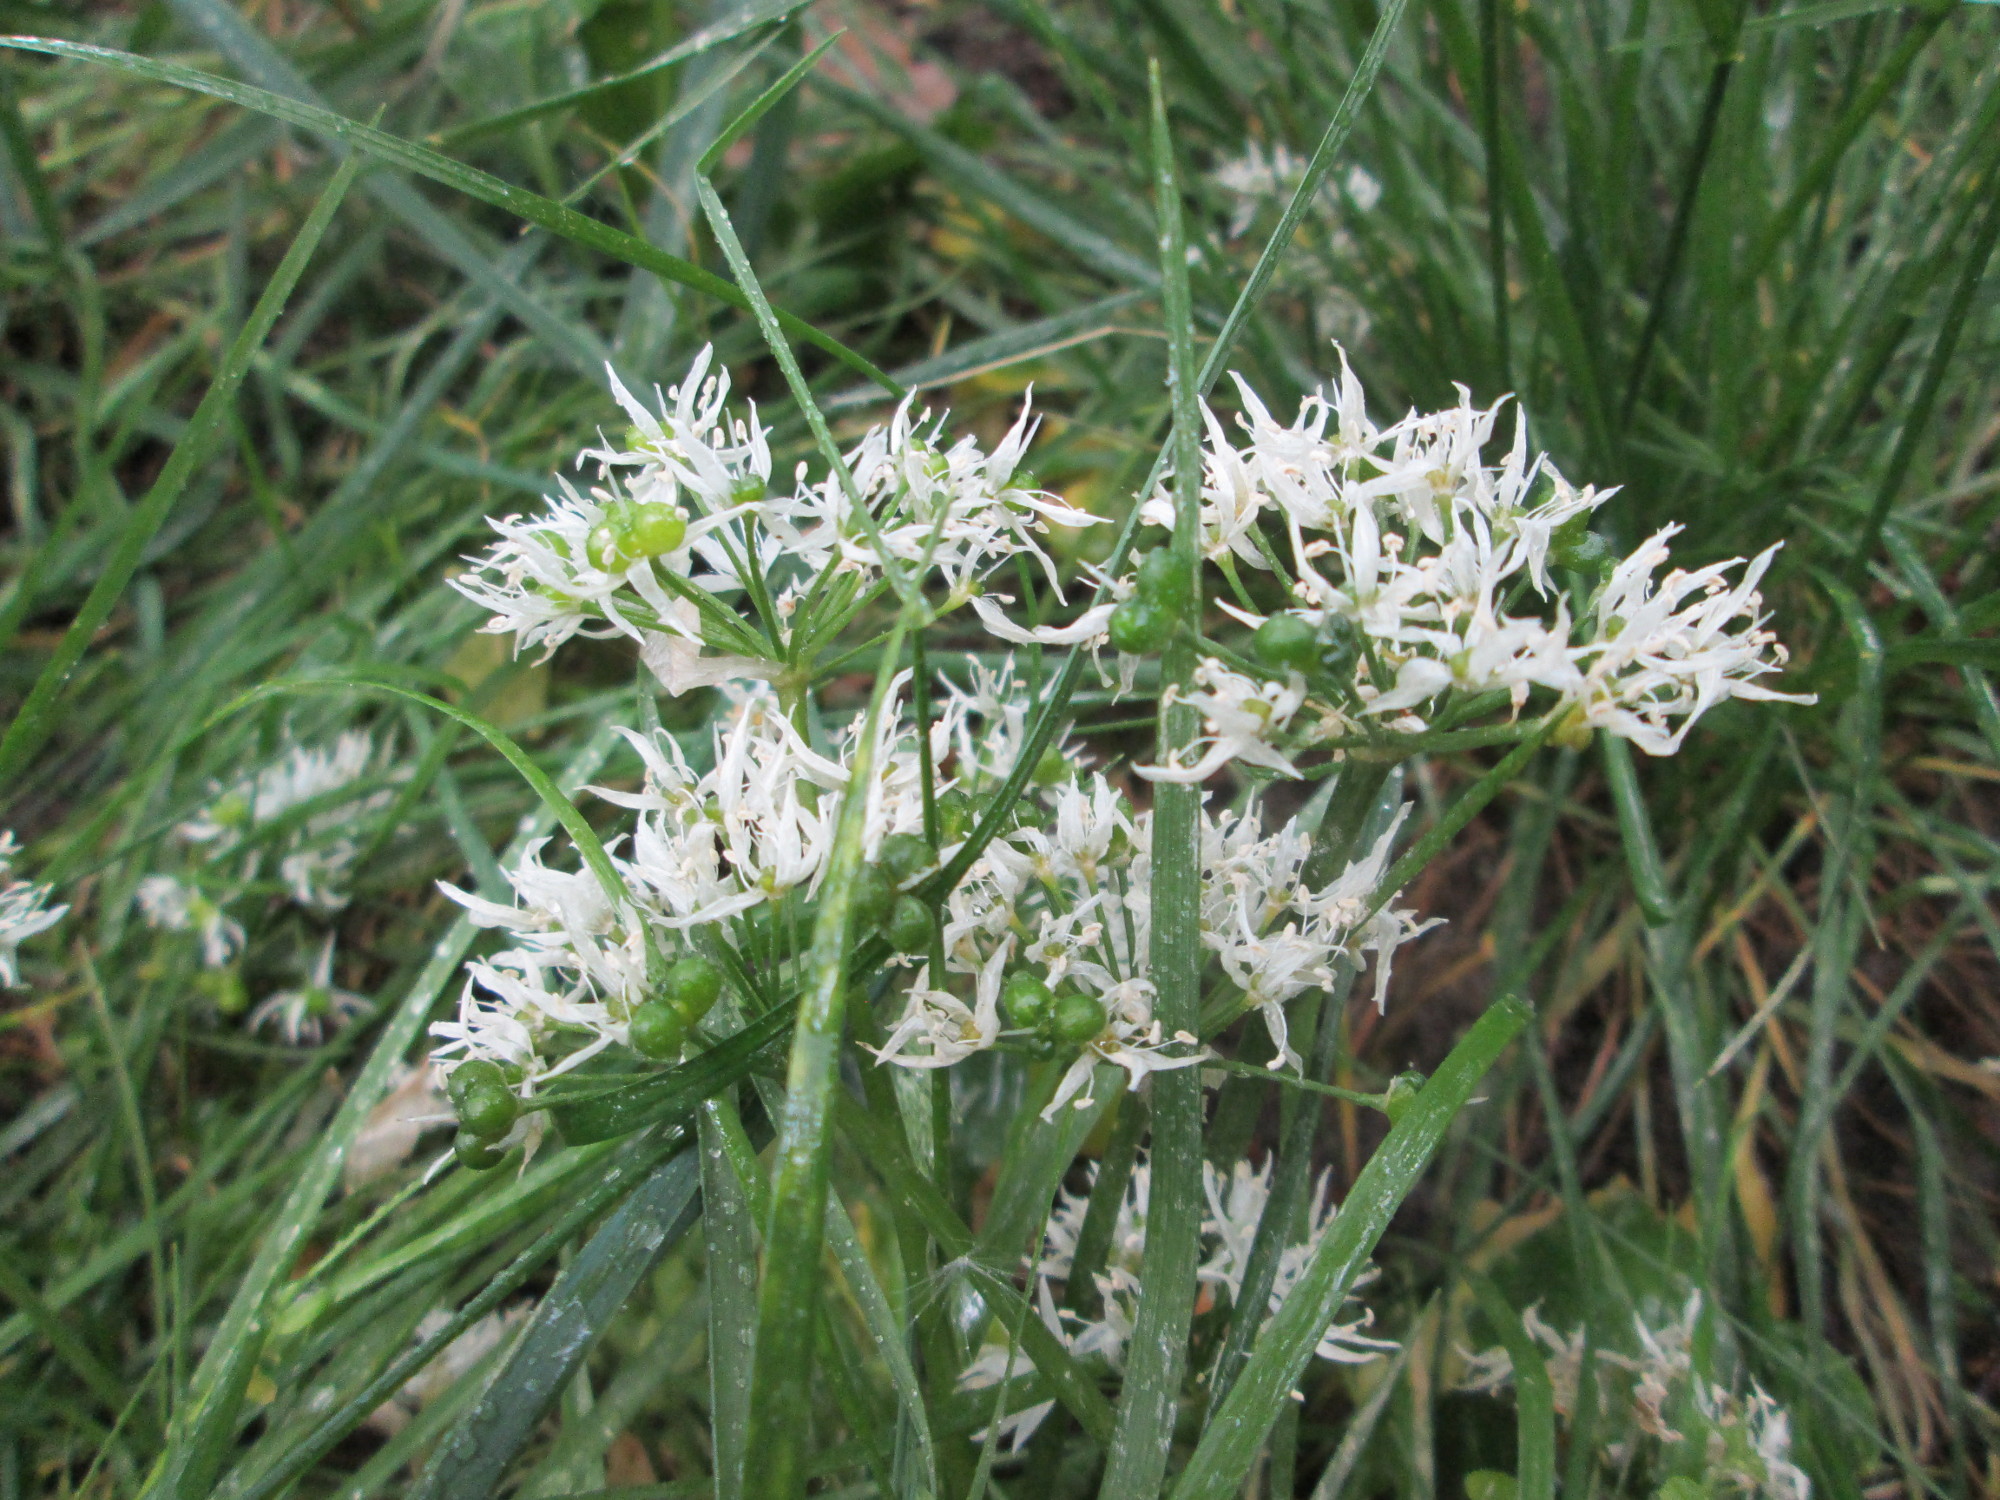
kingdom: Plantae
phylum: Tracheophyta
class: Liliopsida
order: Asparagales
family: Amaryllidaceae
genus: Allium
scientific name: Allium ursinum
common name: Ramsons
